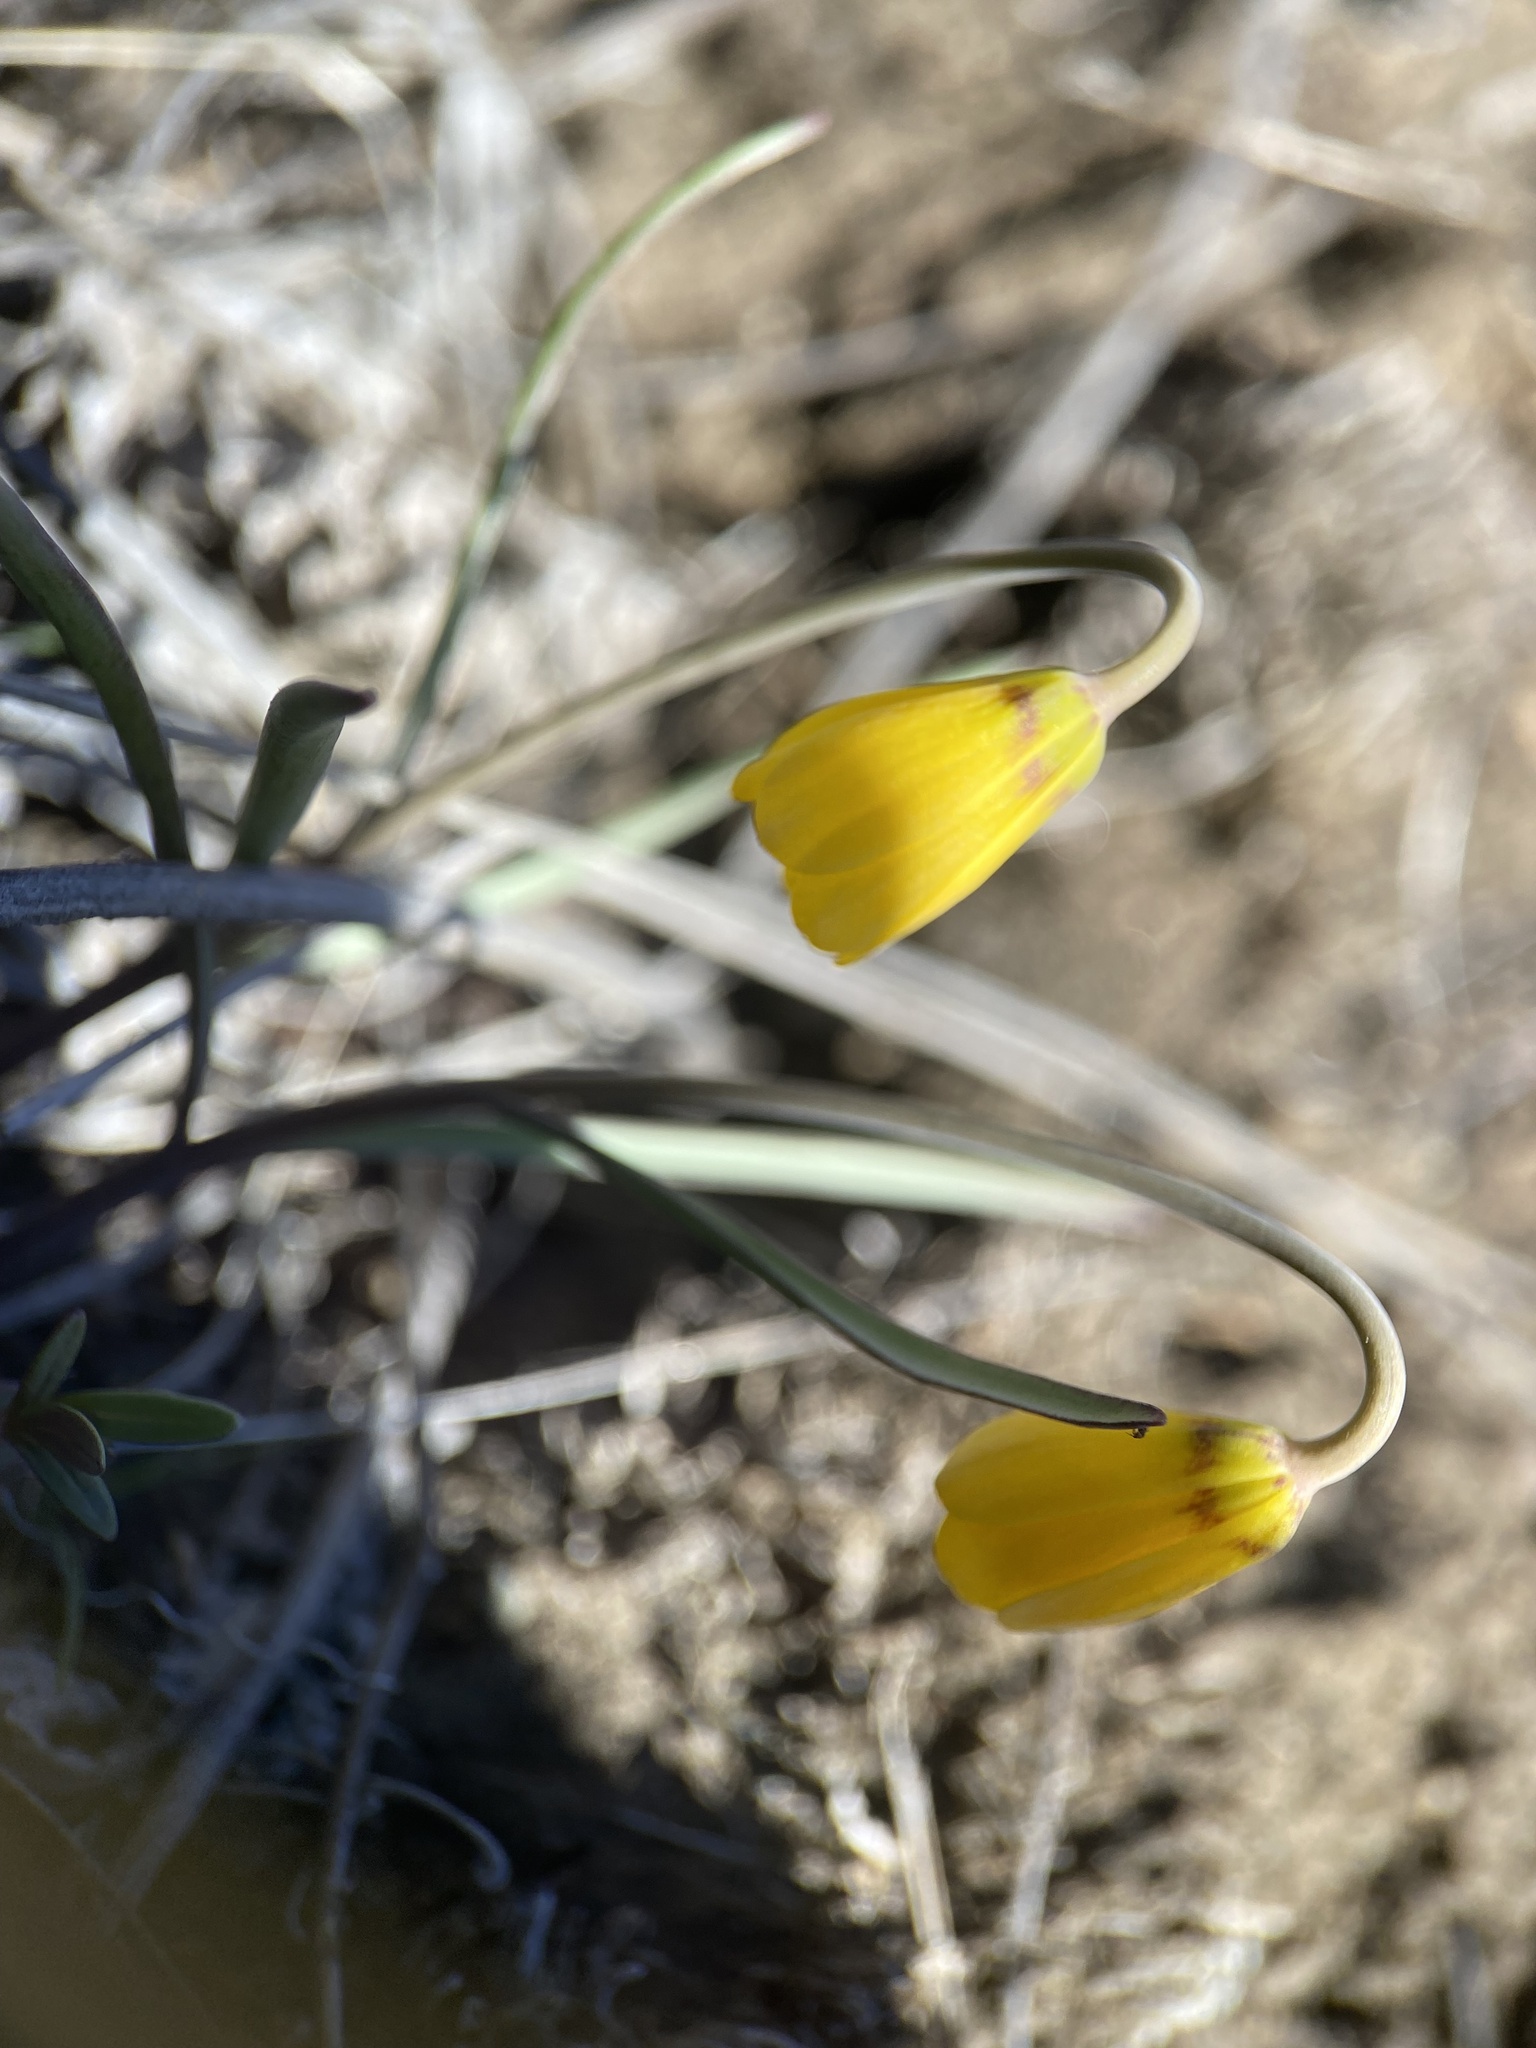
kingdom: Plantae
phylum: Tracheophyta
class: Liliopsida
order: Liliales
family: Liliaceae
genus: Fritillaria
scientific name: Fritillaria pudica
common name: Yellow fritillary
